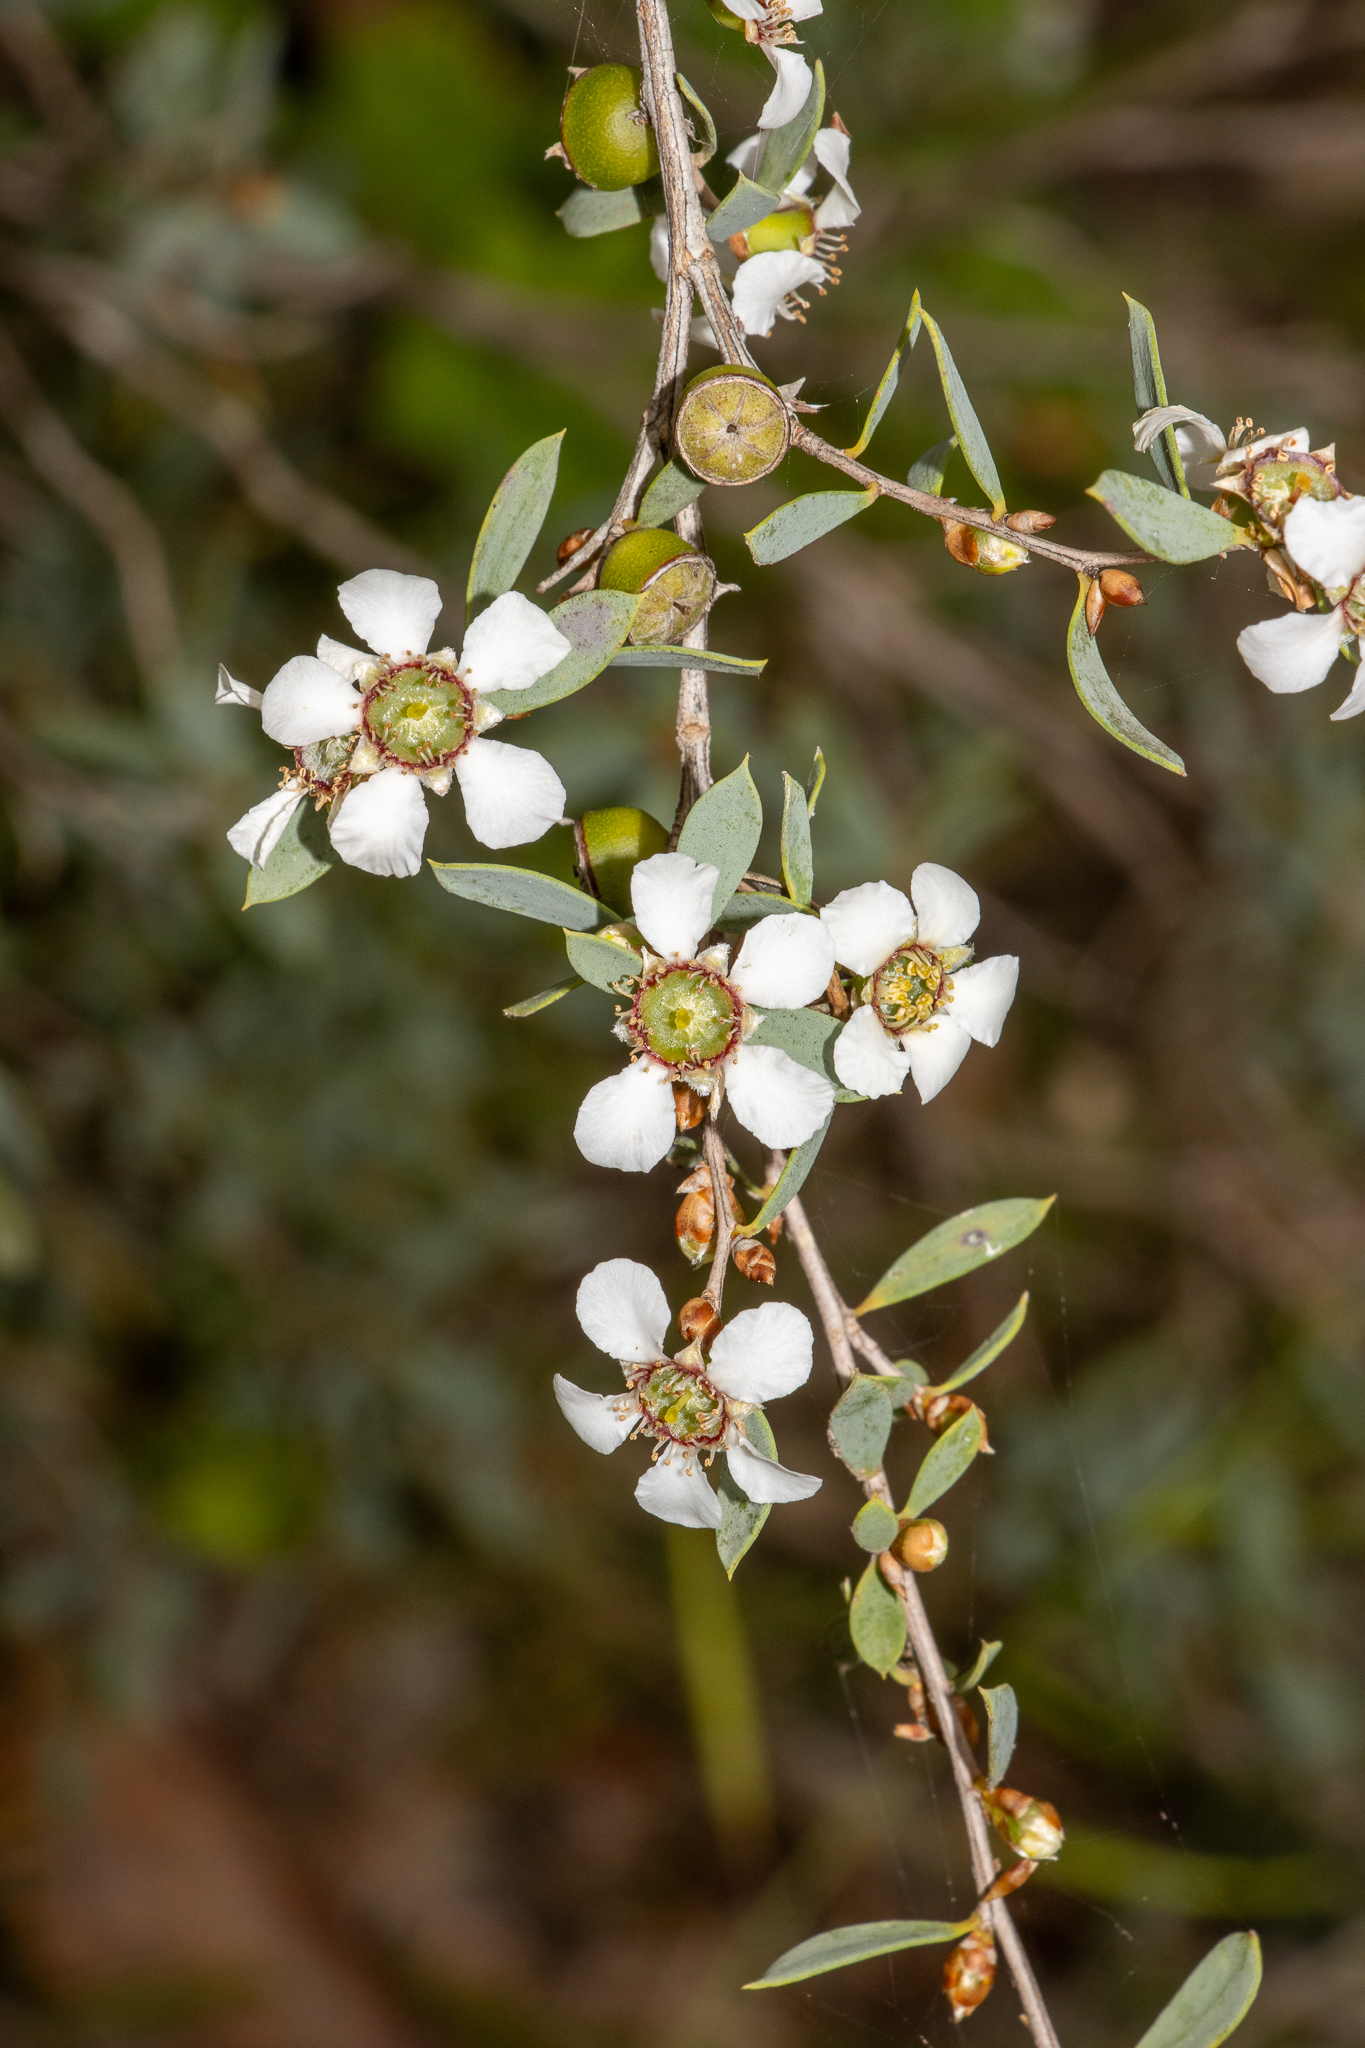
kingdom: Plantae
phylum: Tracheophyta
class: Magnoliopsida
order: Myrtales
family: Myrtaceae
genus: Leptospermum
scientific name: Leptospermum coriaceum
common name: Mallee teatree
